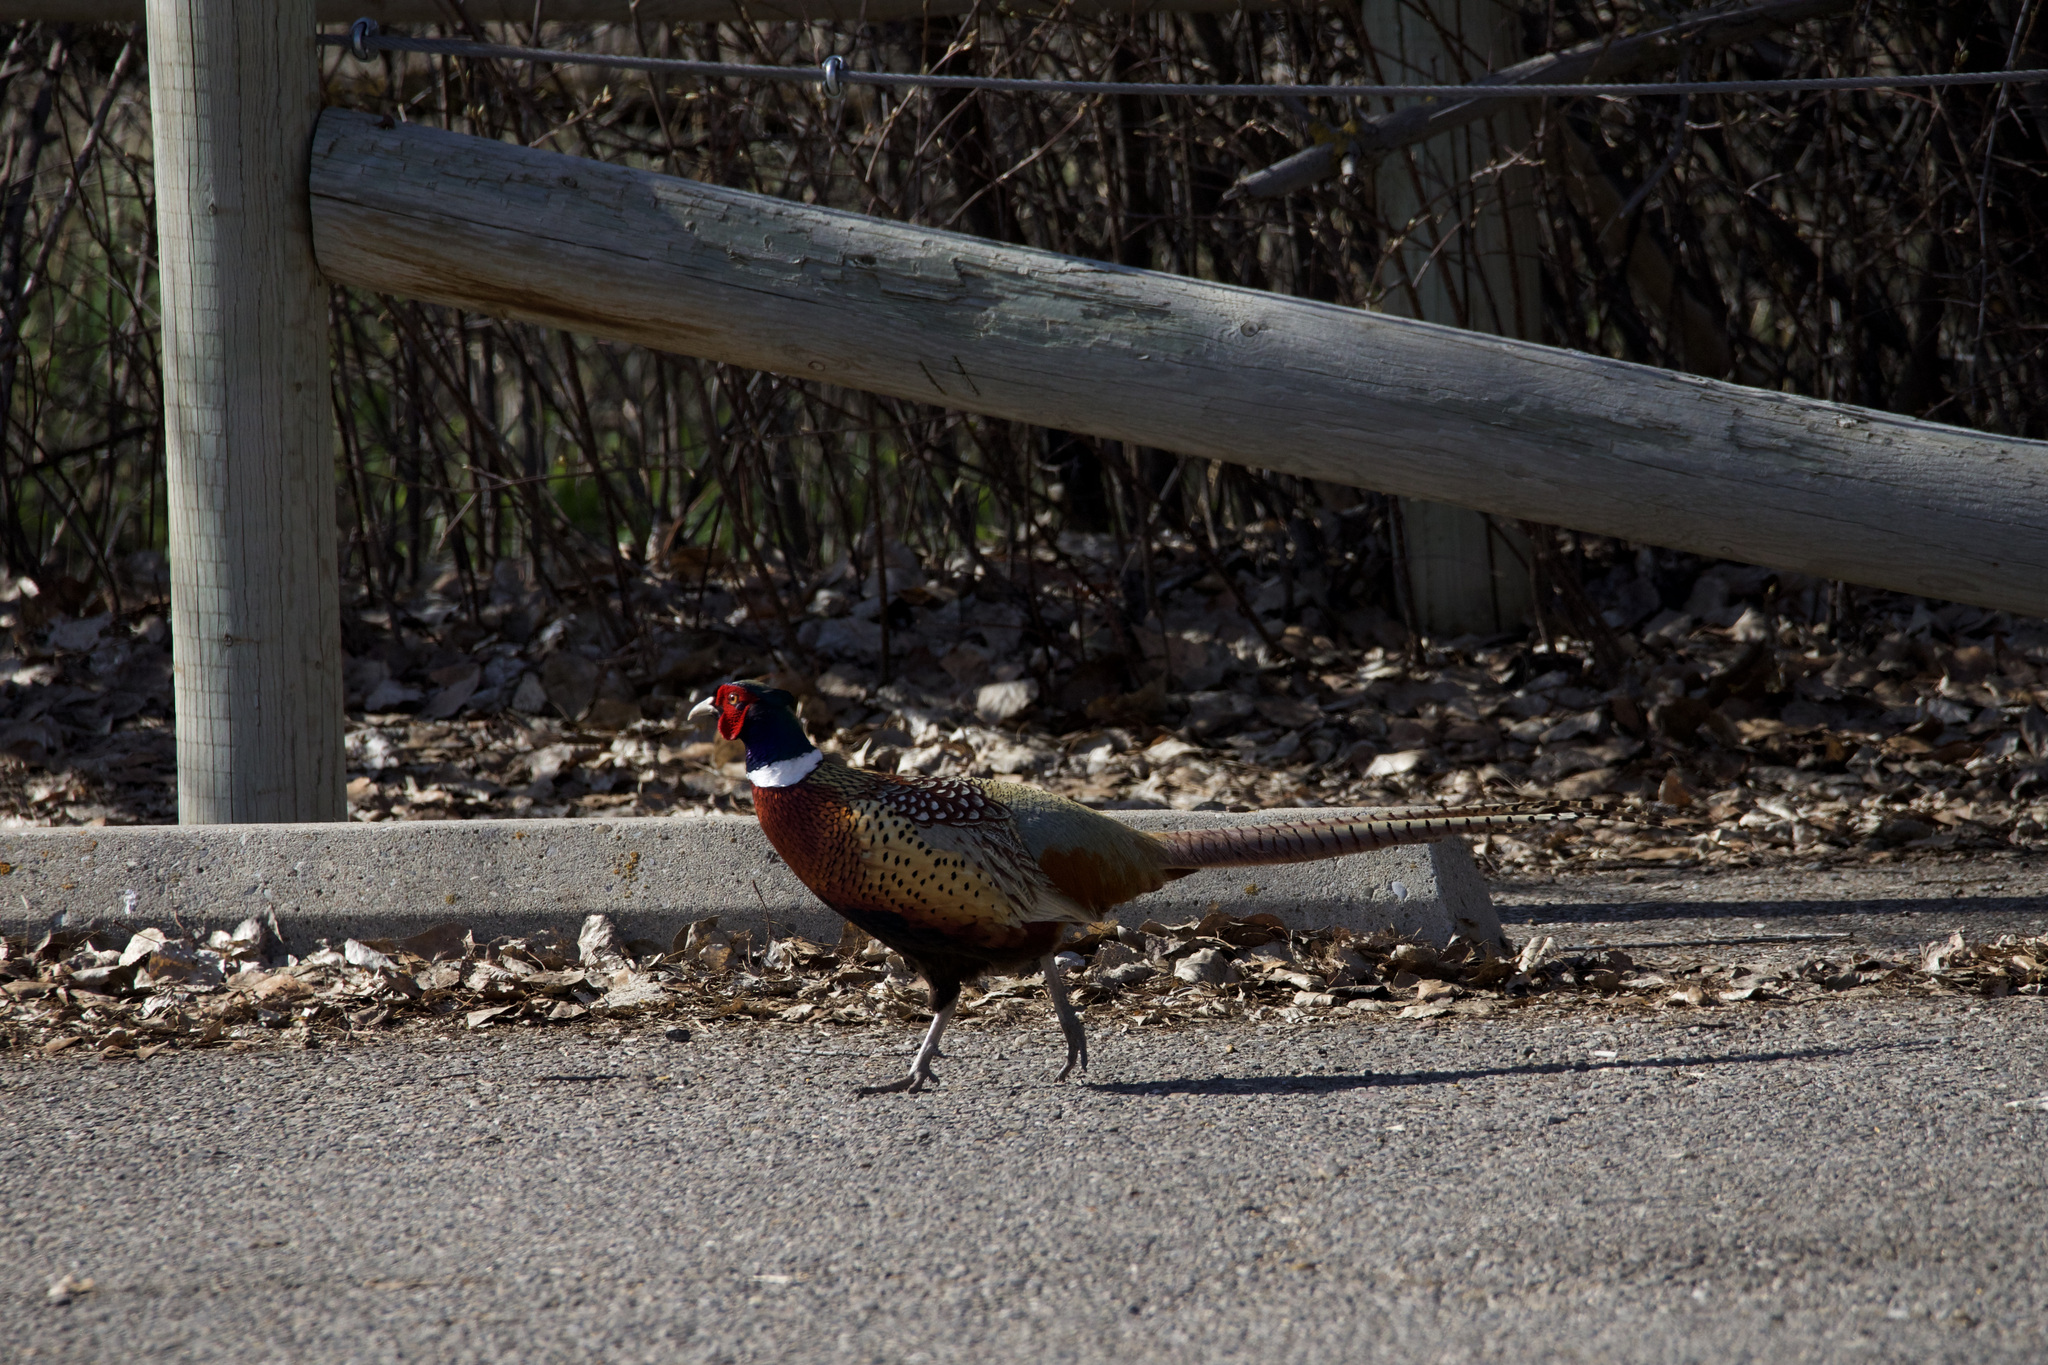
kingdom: Animalia
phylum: Chordata
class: Aves
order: Galliformes
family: Phasianidae
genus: Phasianus
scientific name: Phasianus colchicus
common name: Common pheasant
